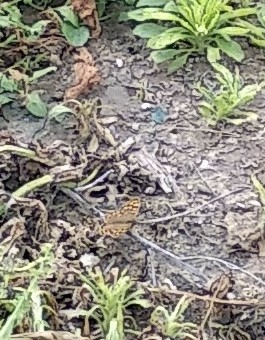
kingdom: Animalia
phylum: Arthropoda
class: Insecta
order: Lepidoptera
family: Nymphalidae
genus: Pararge
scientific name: Pararge aegeria
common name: Speckled wood
